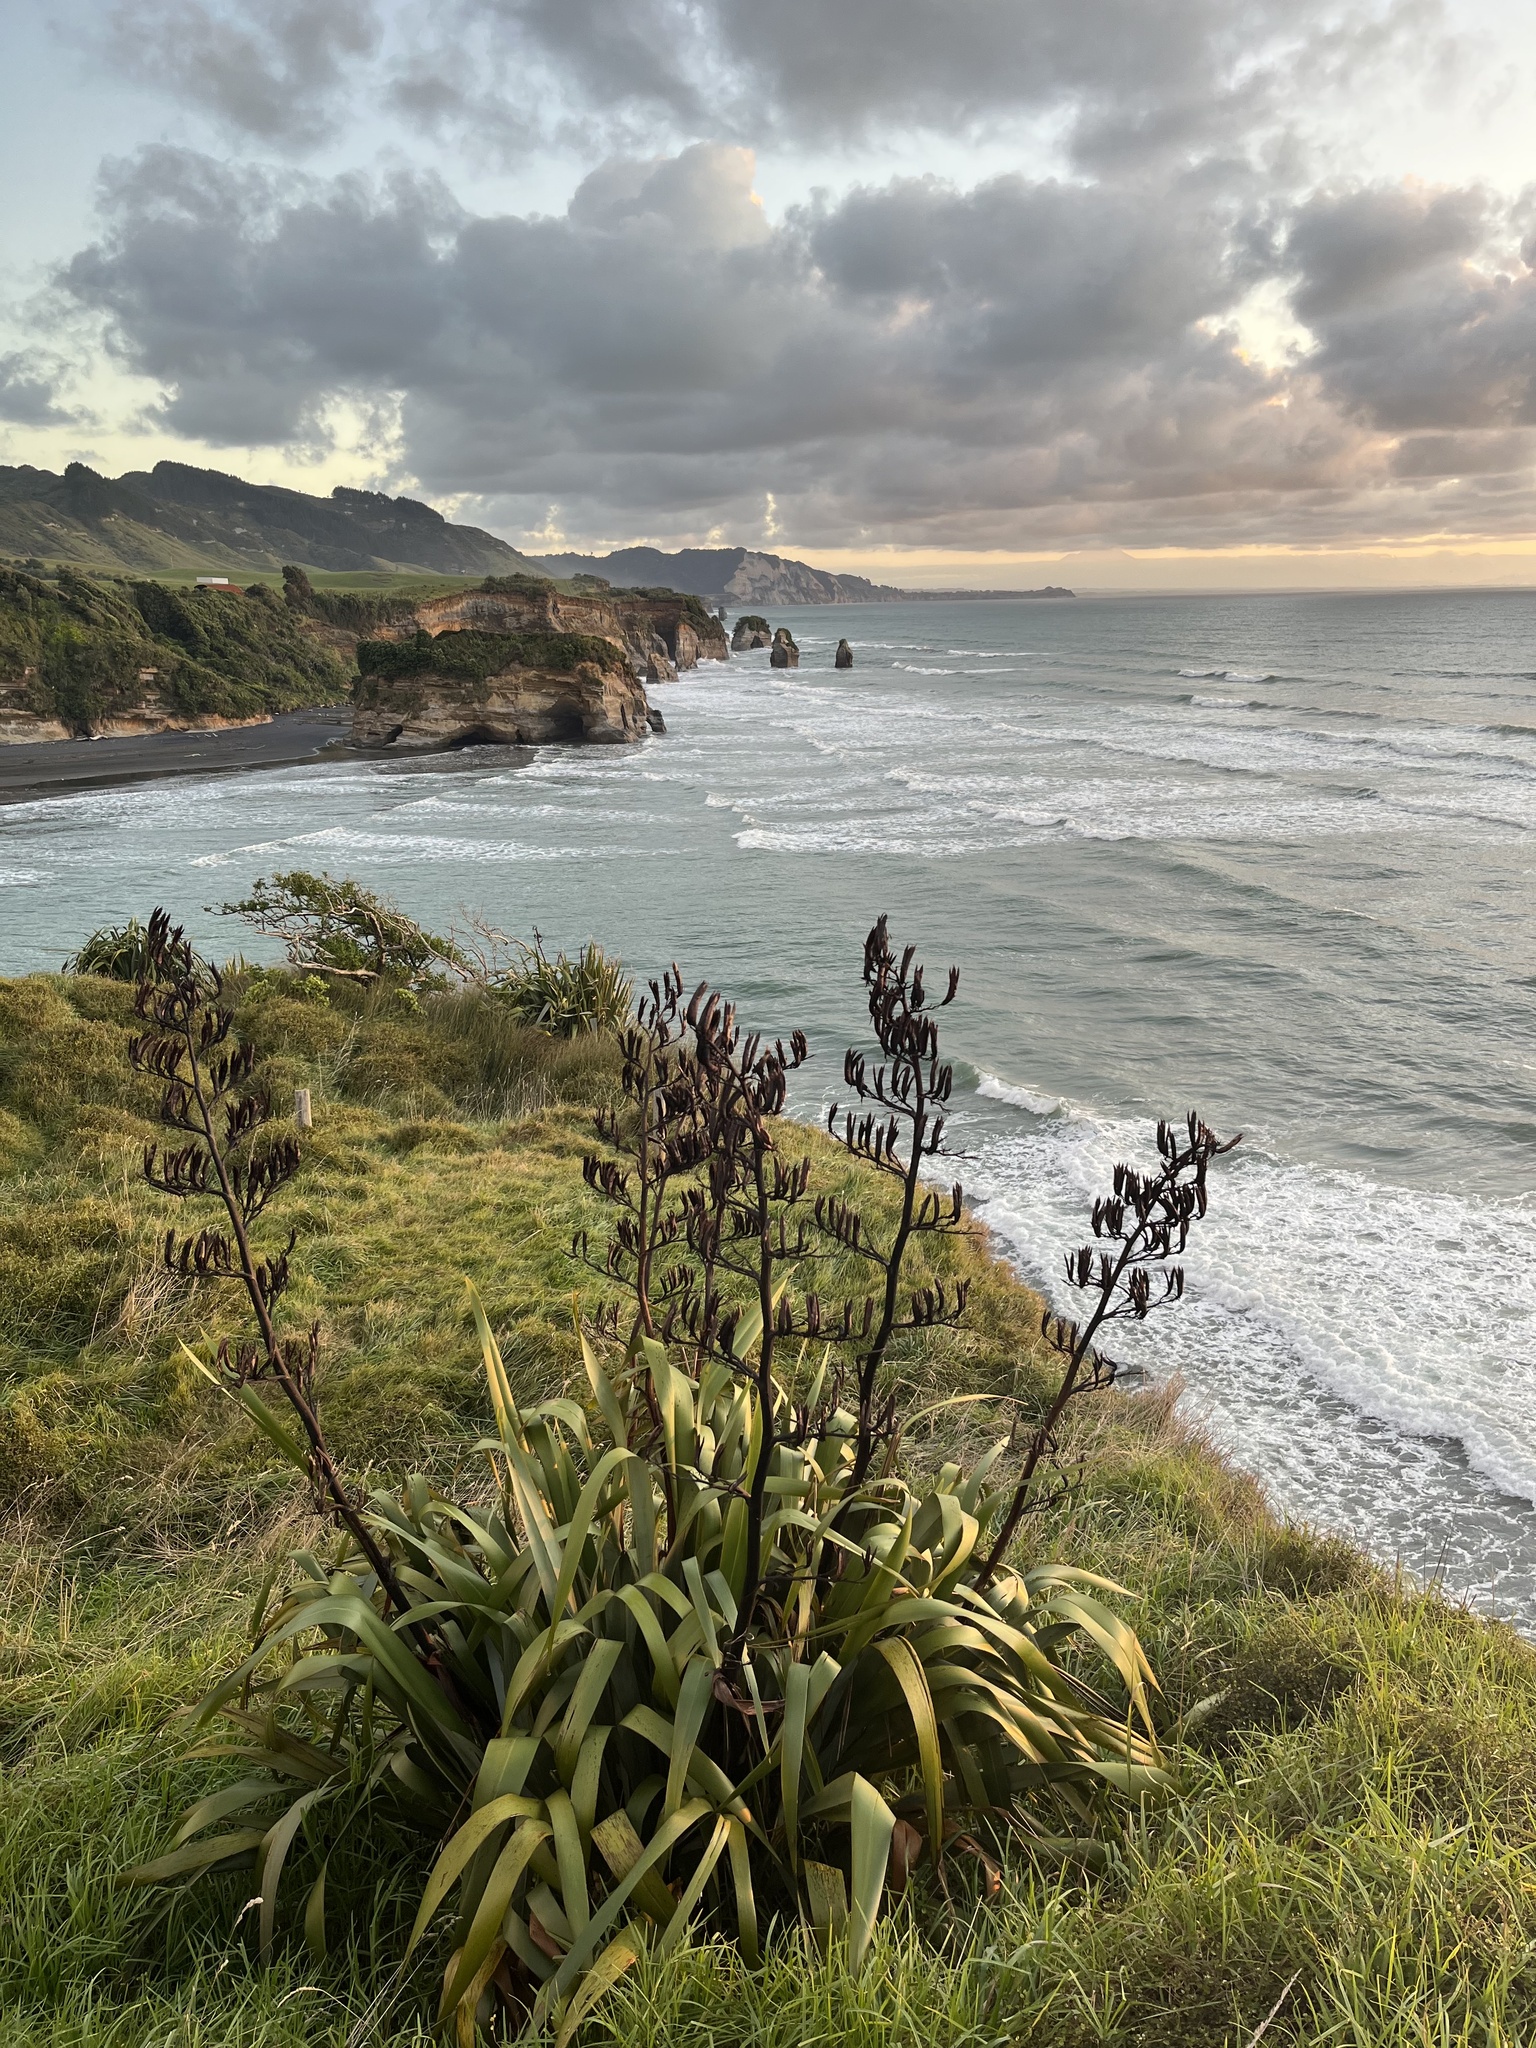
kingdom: Plantae
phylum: Tracheophyta
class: Liliopsida
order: Asparagales
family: Asphodelaceae
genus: Phormium
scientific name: Phormium tenax
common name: New zealand flax
